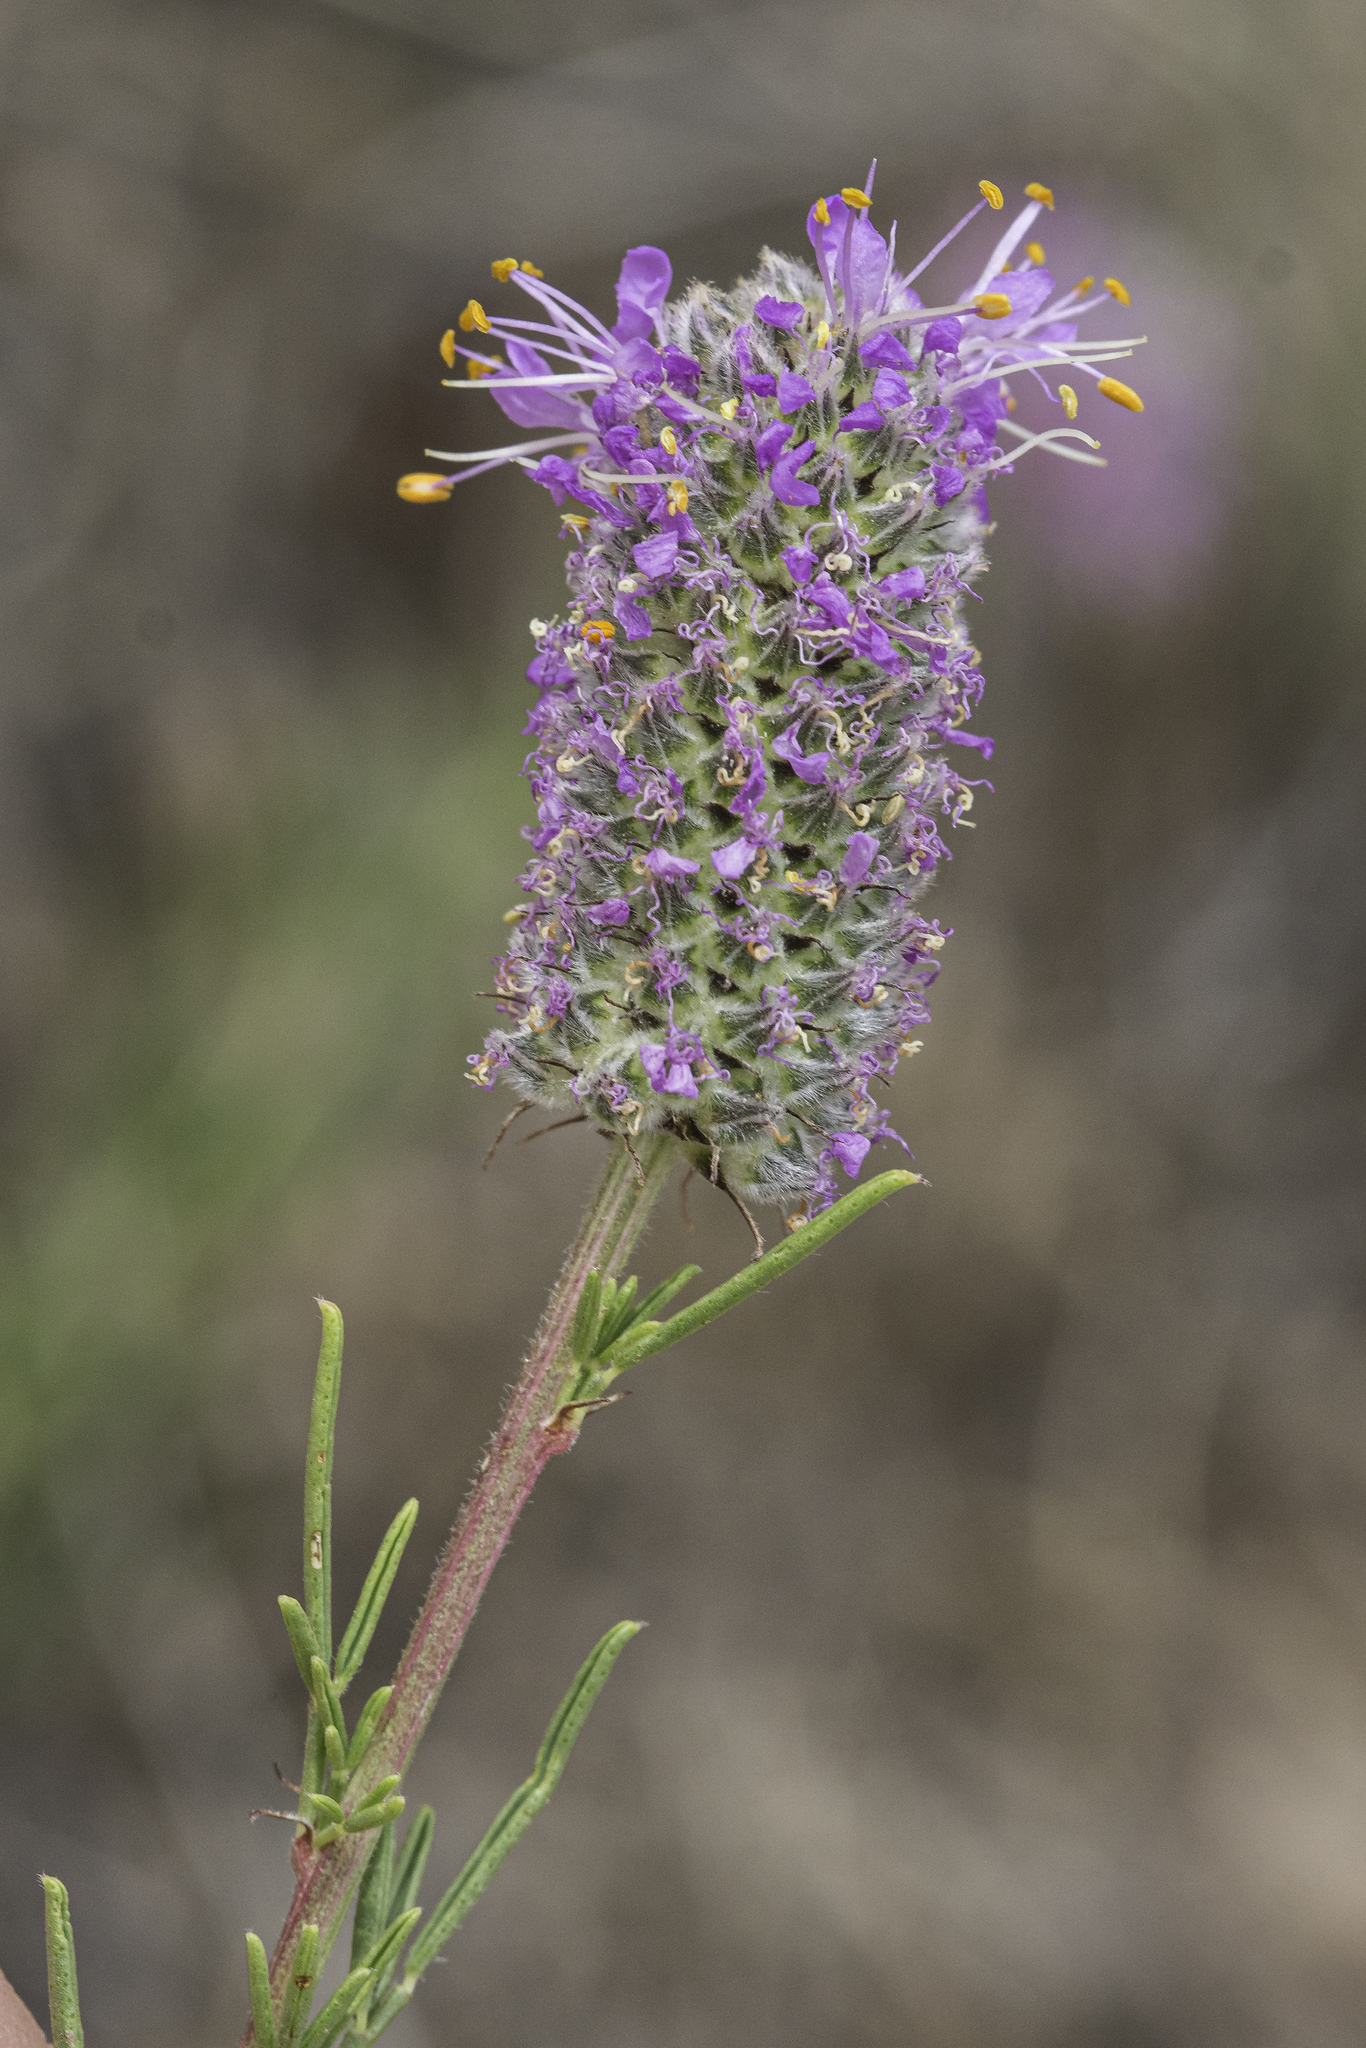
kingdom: Plantae
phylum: Tracheophyta
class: Magnoliopsida
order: Fabales
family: Fabaceae
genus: Dalea
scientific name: Dalea purpurea
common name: Purple prairie-clover
